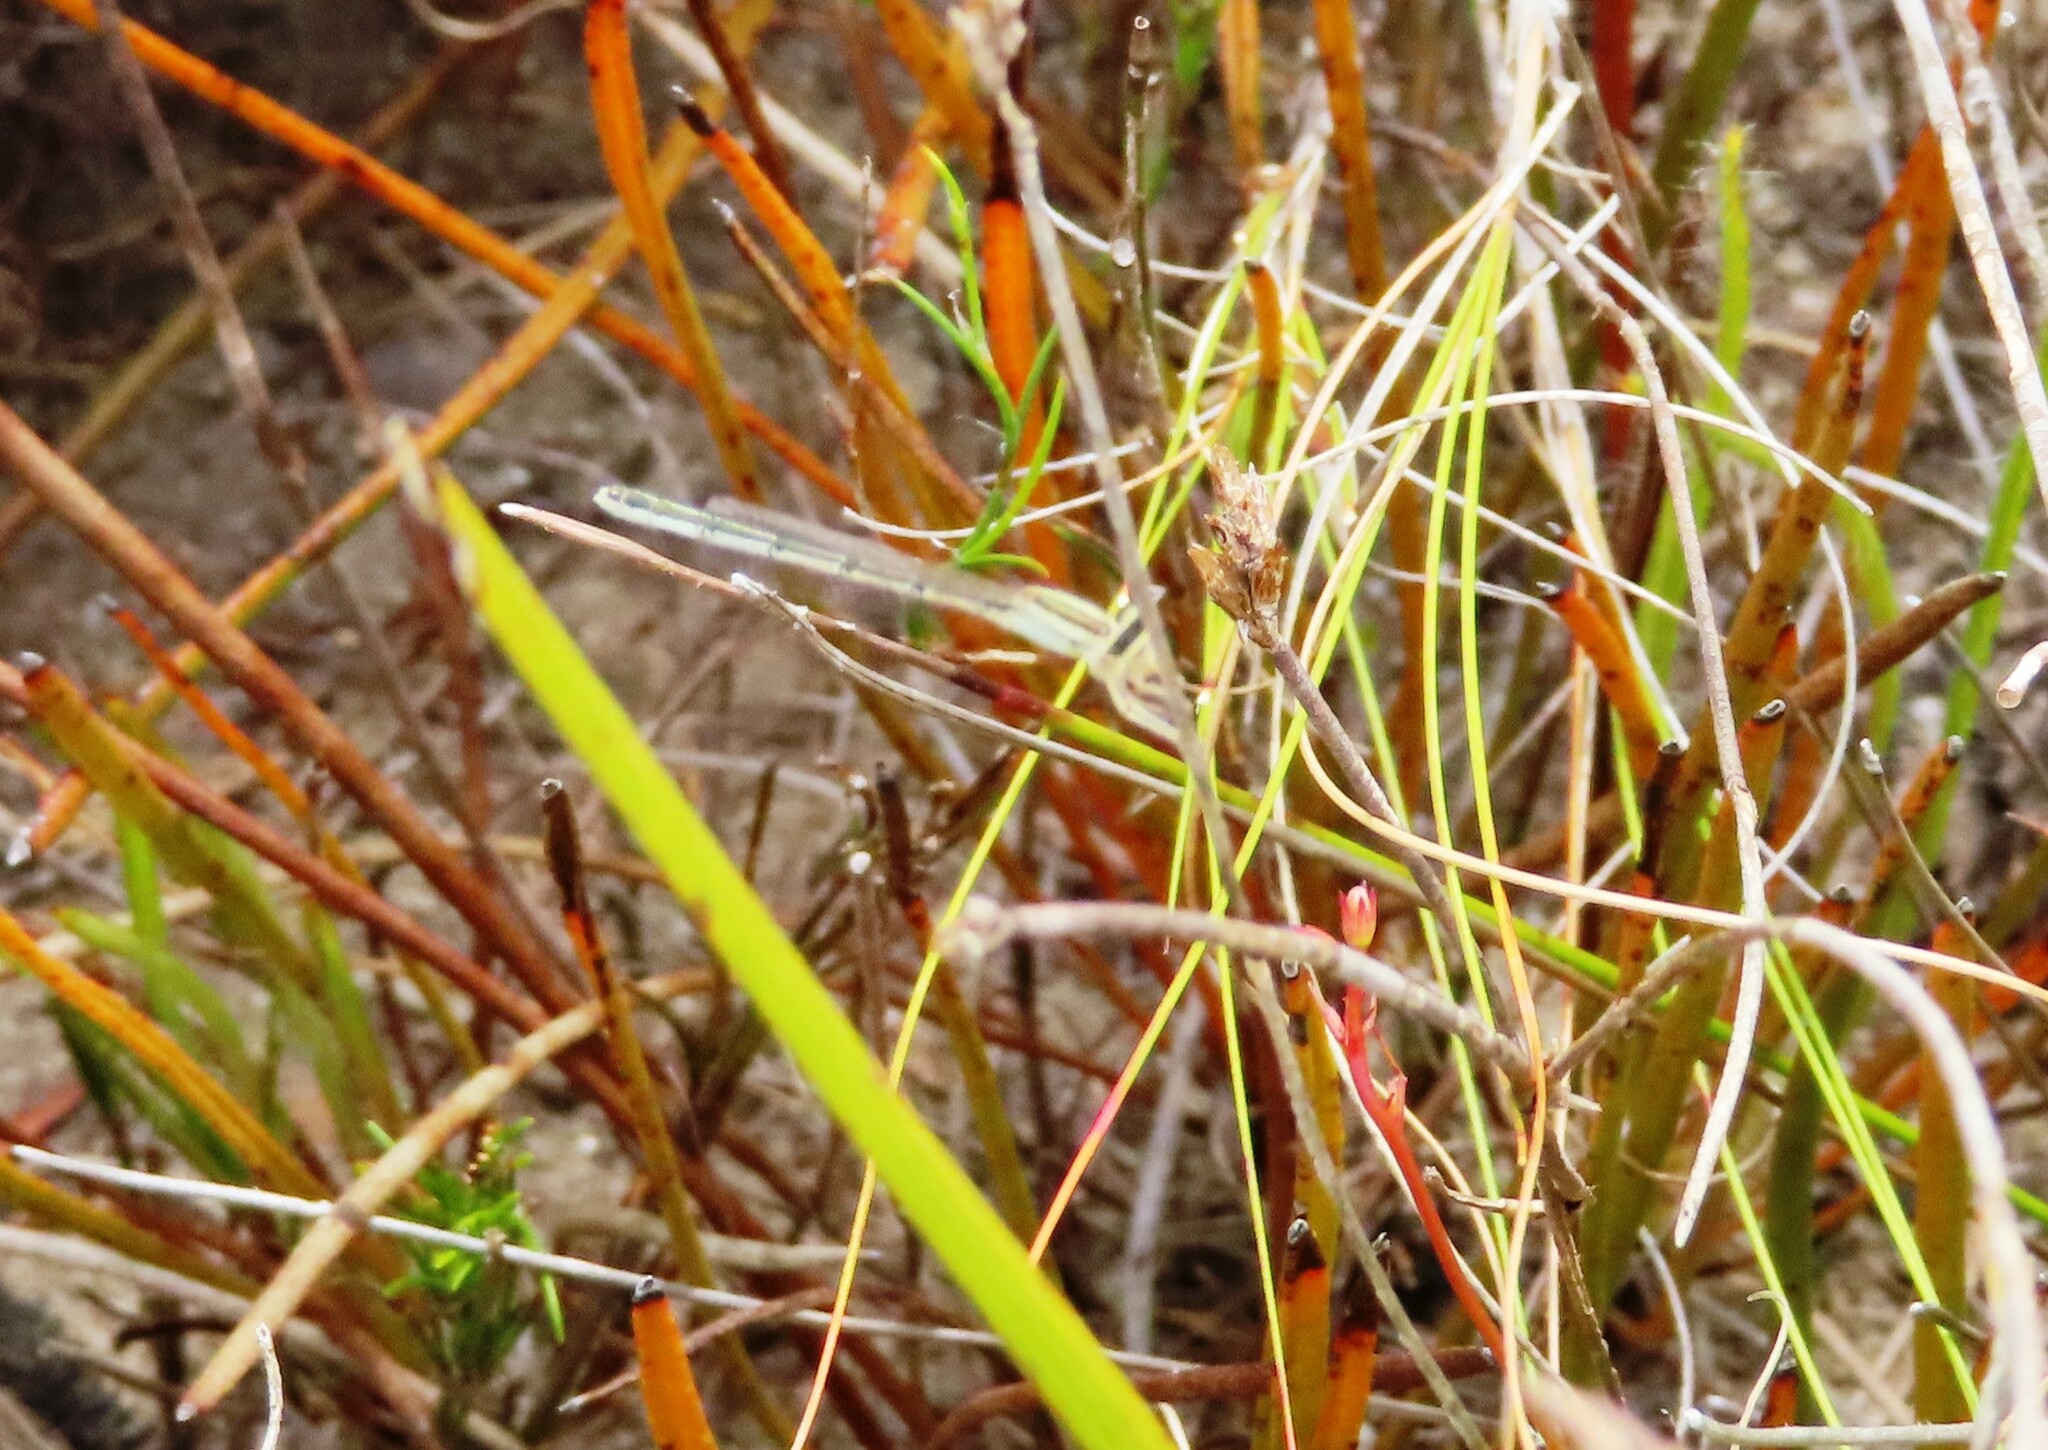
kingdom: Animalia
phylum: Arthropoda
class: Insecta
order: Odonata
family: Coenagrionidae
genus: Ischnura
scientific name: Ischnura senegalensis
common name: Tropical bluetail
